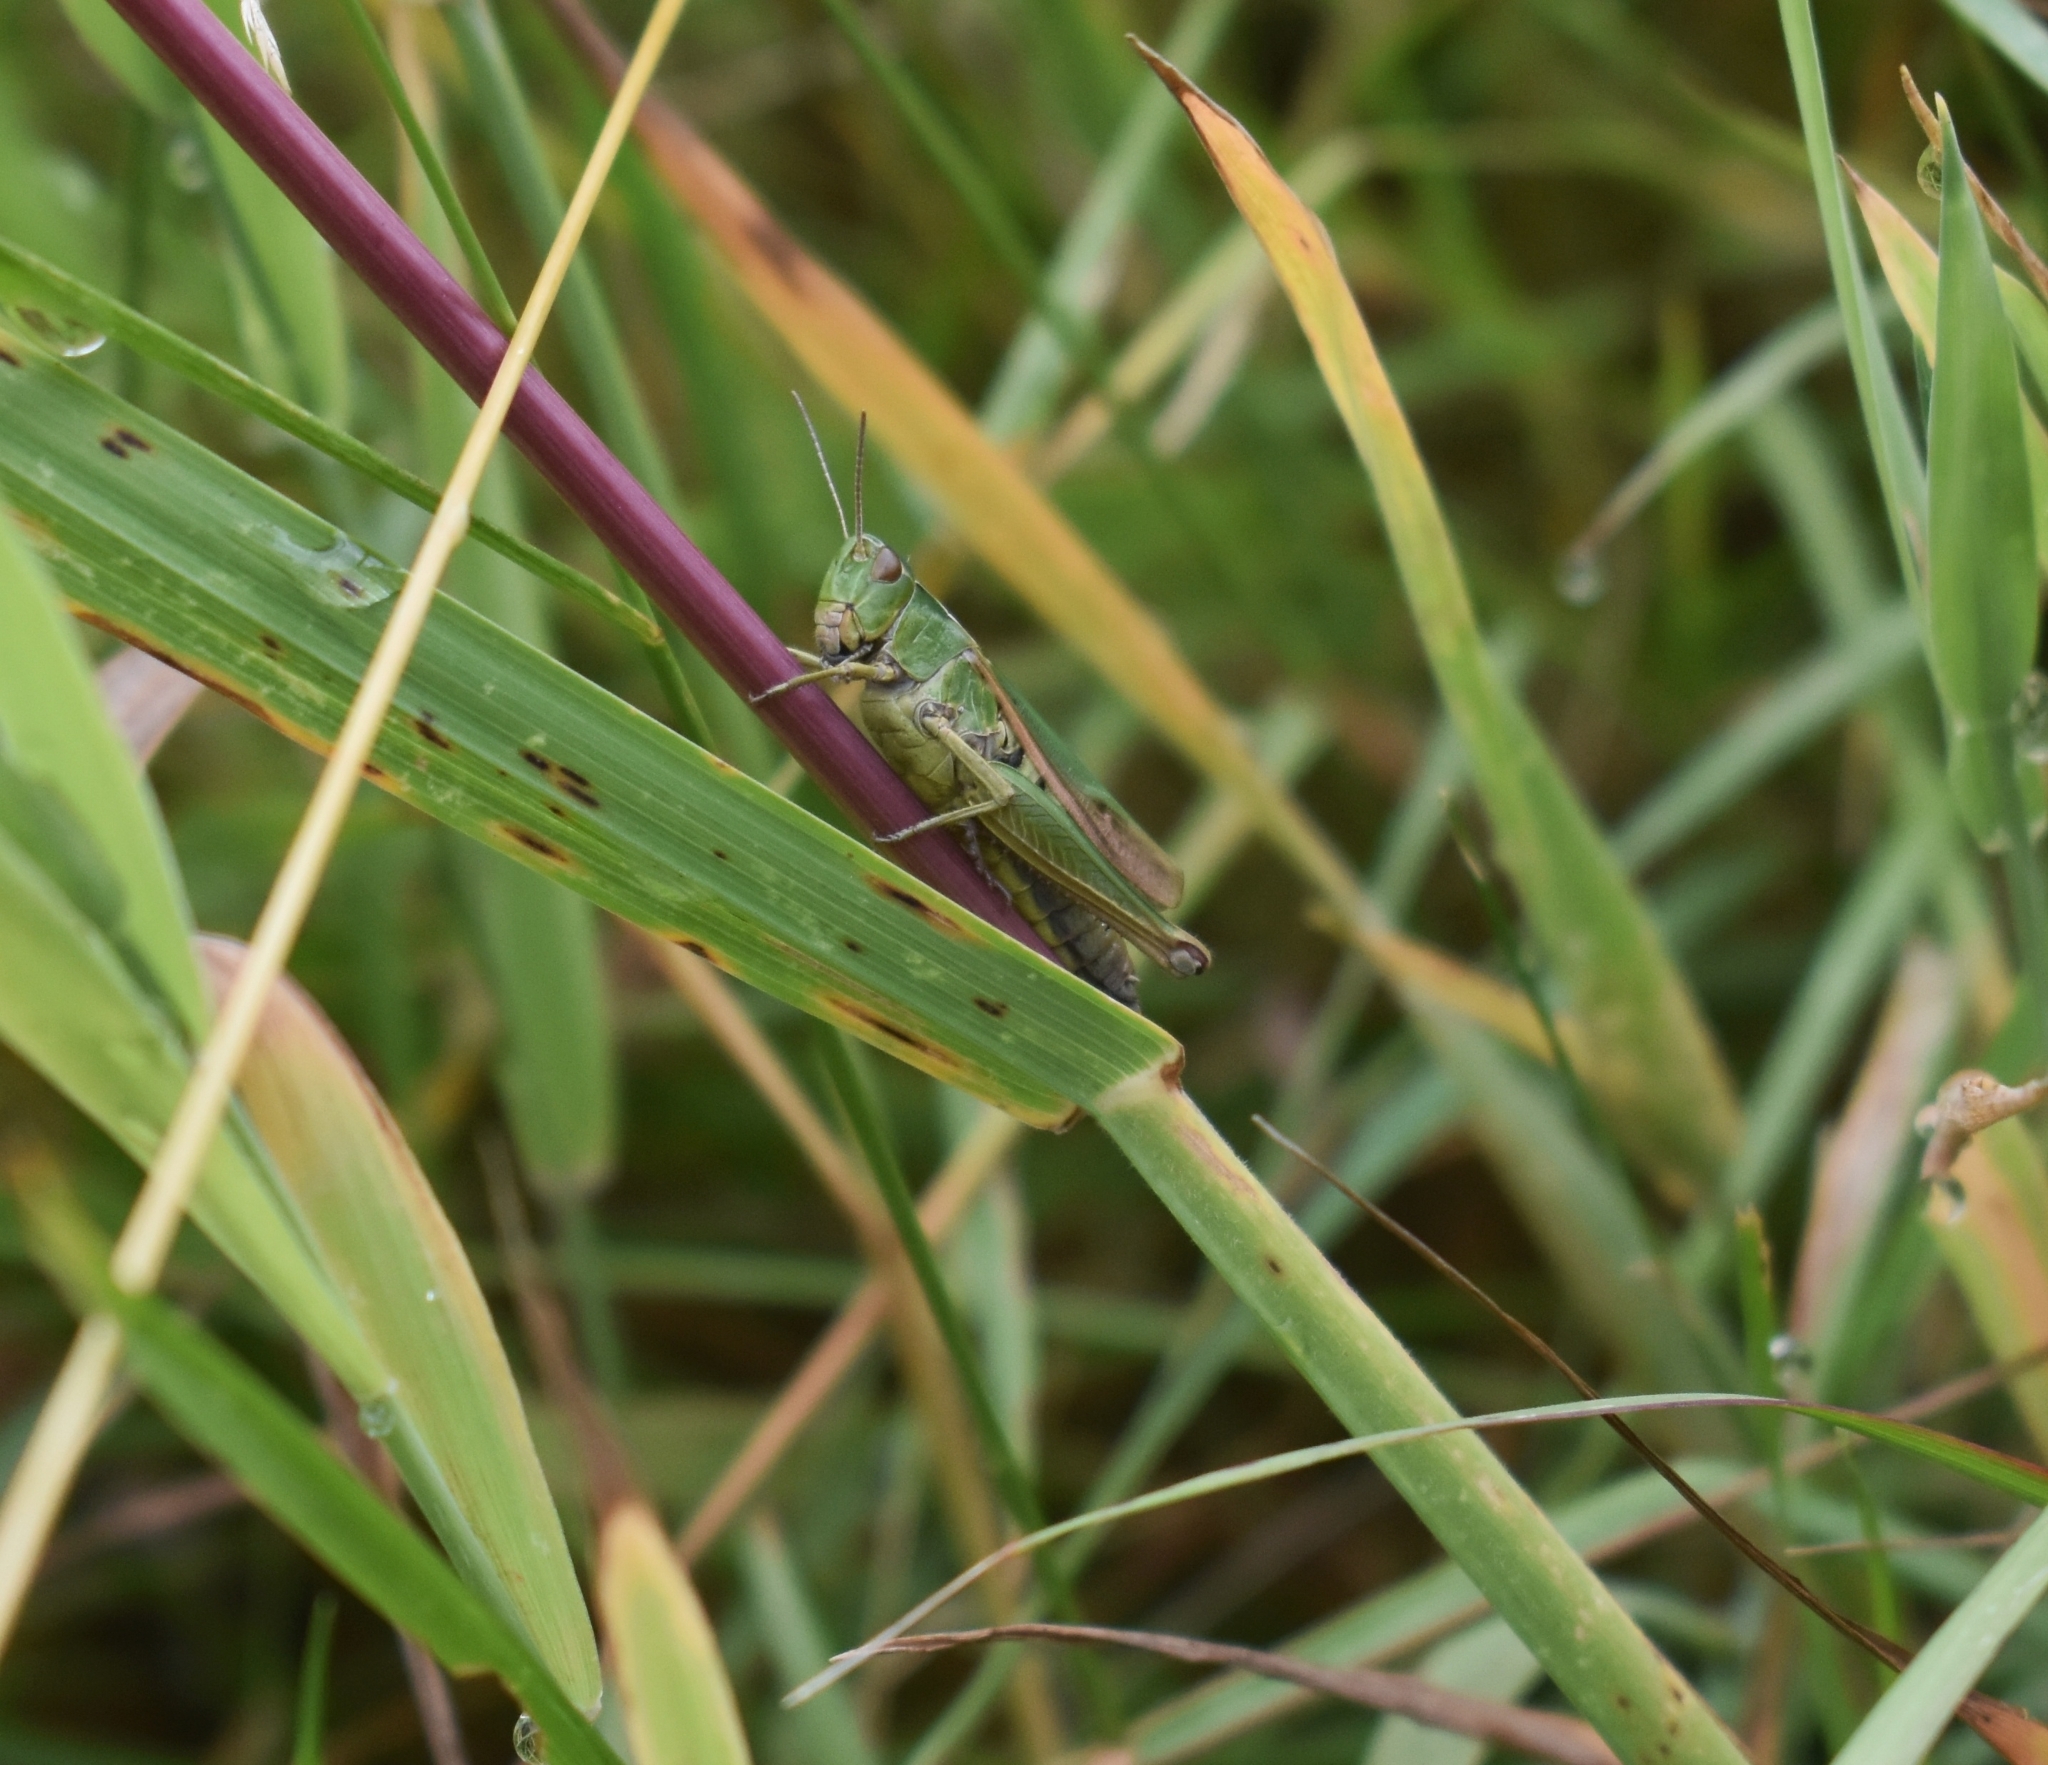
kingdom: Animalia
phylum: Arthropoda
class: Insecta
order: Orthoptera
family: Acrididae
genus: Omocestus
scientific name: Omocestus viridulus
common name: Common green grasshopper
